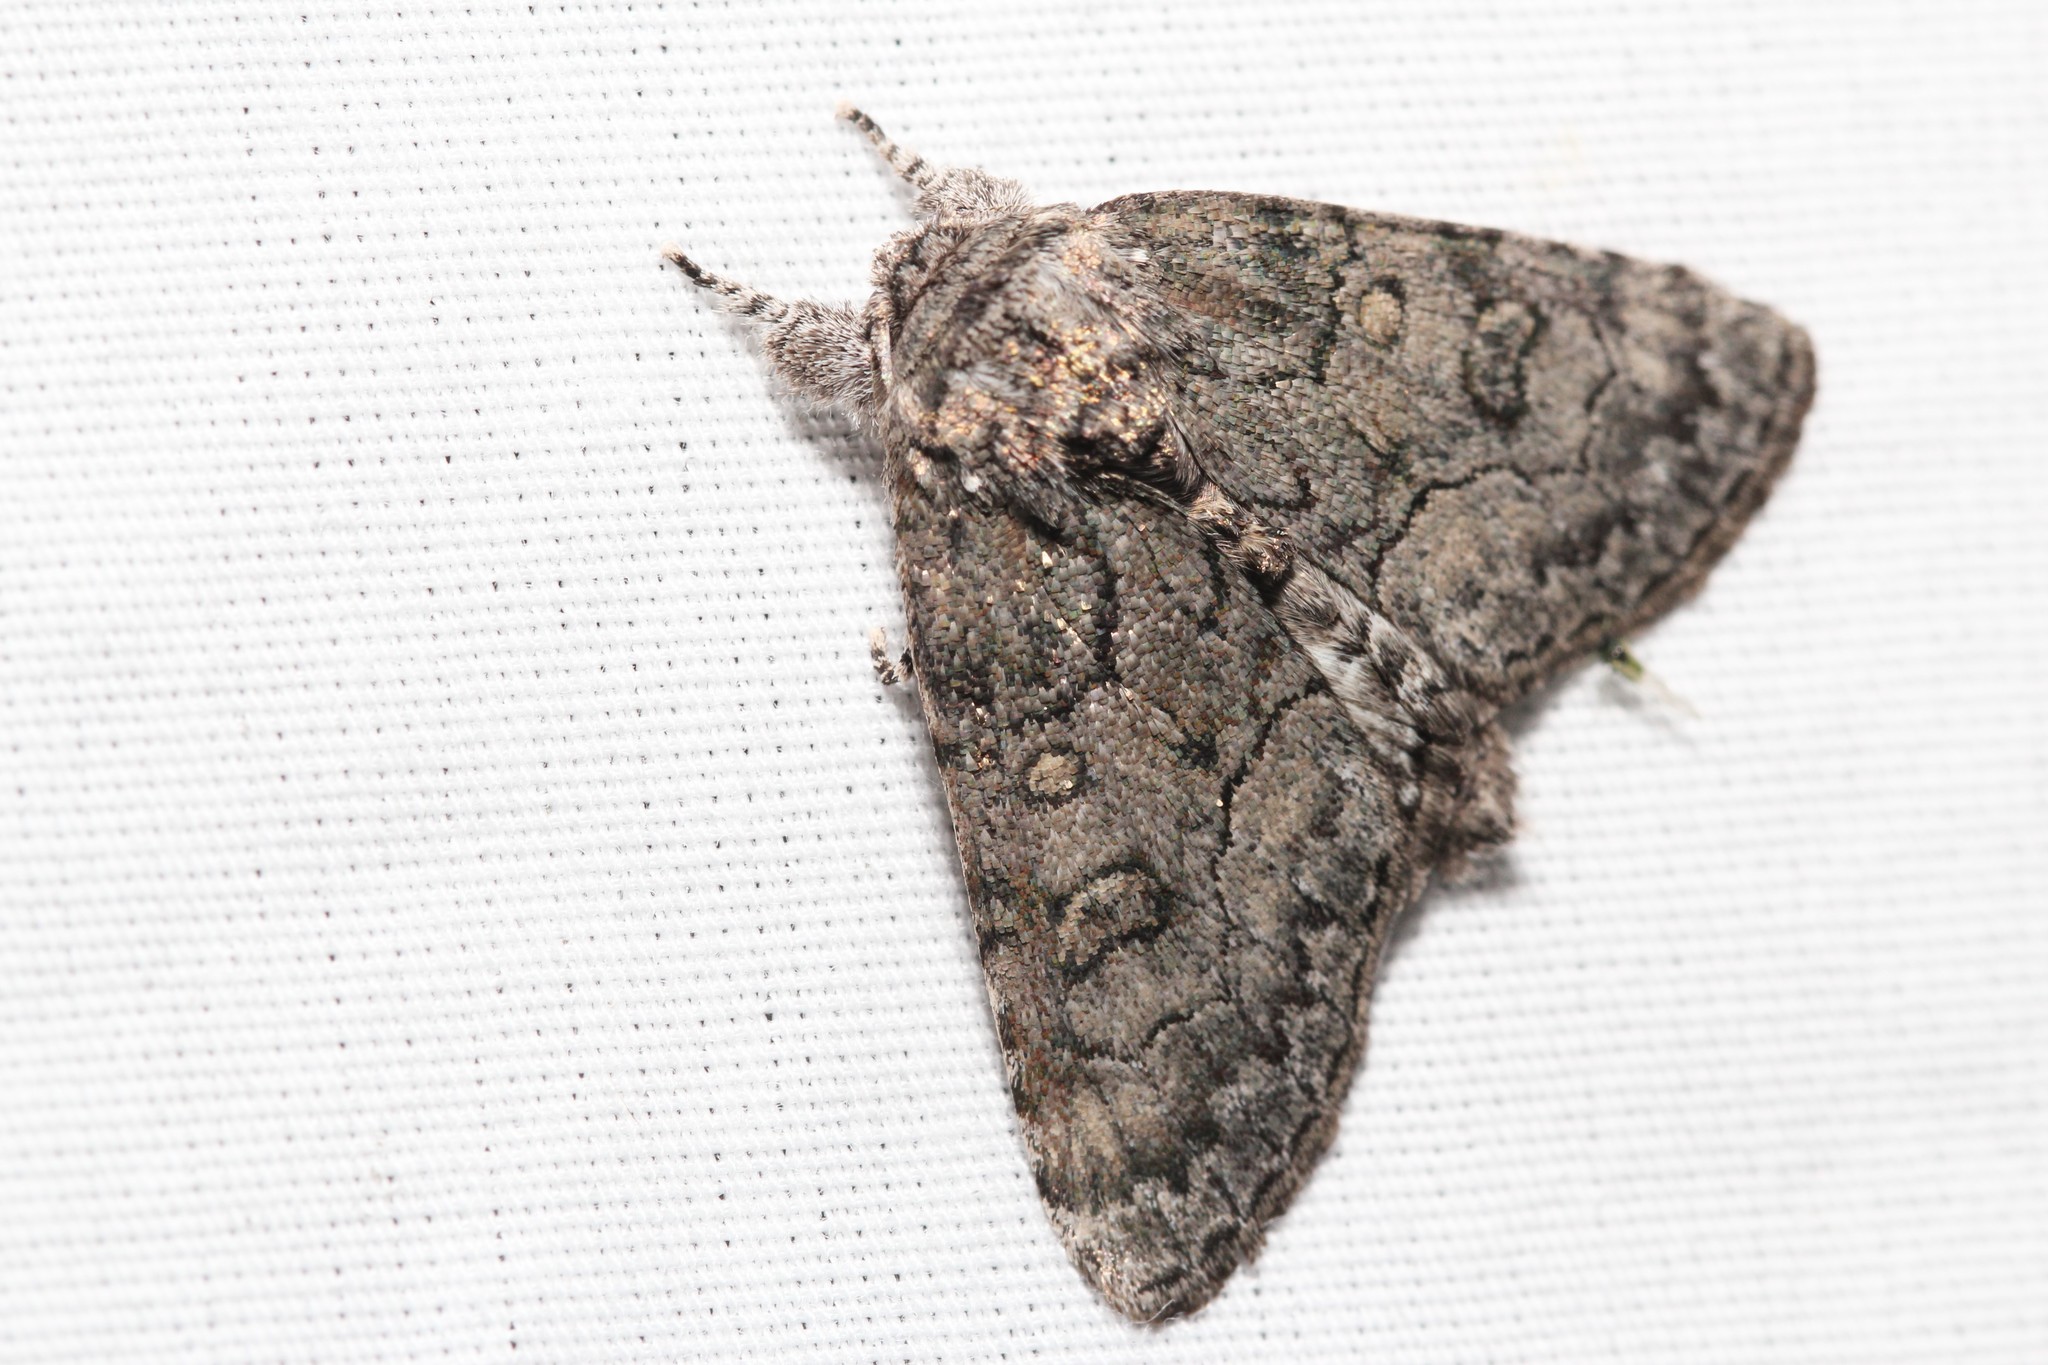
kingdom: Animalia
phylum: Arthropoda
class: Insecta
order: Lepidoptera
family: Noctuidae
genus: Raphia
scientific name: Raphia frater
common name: Brother
